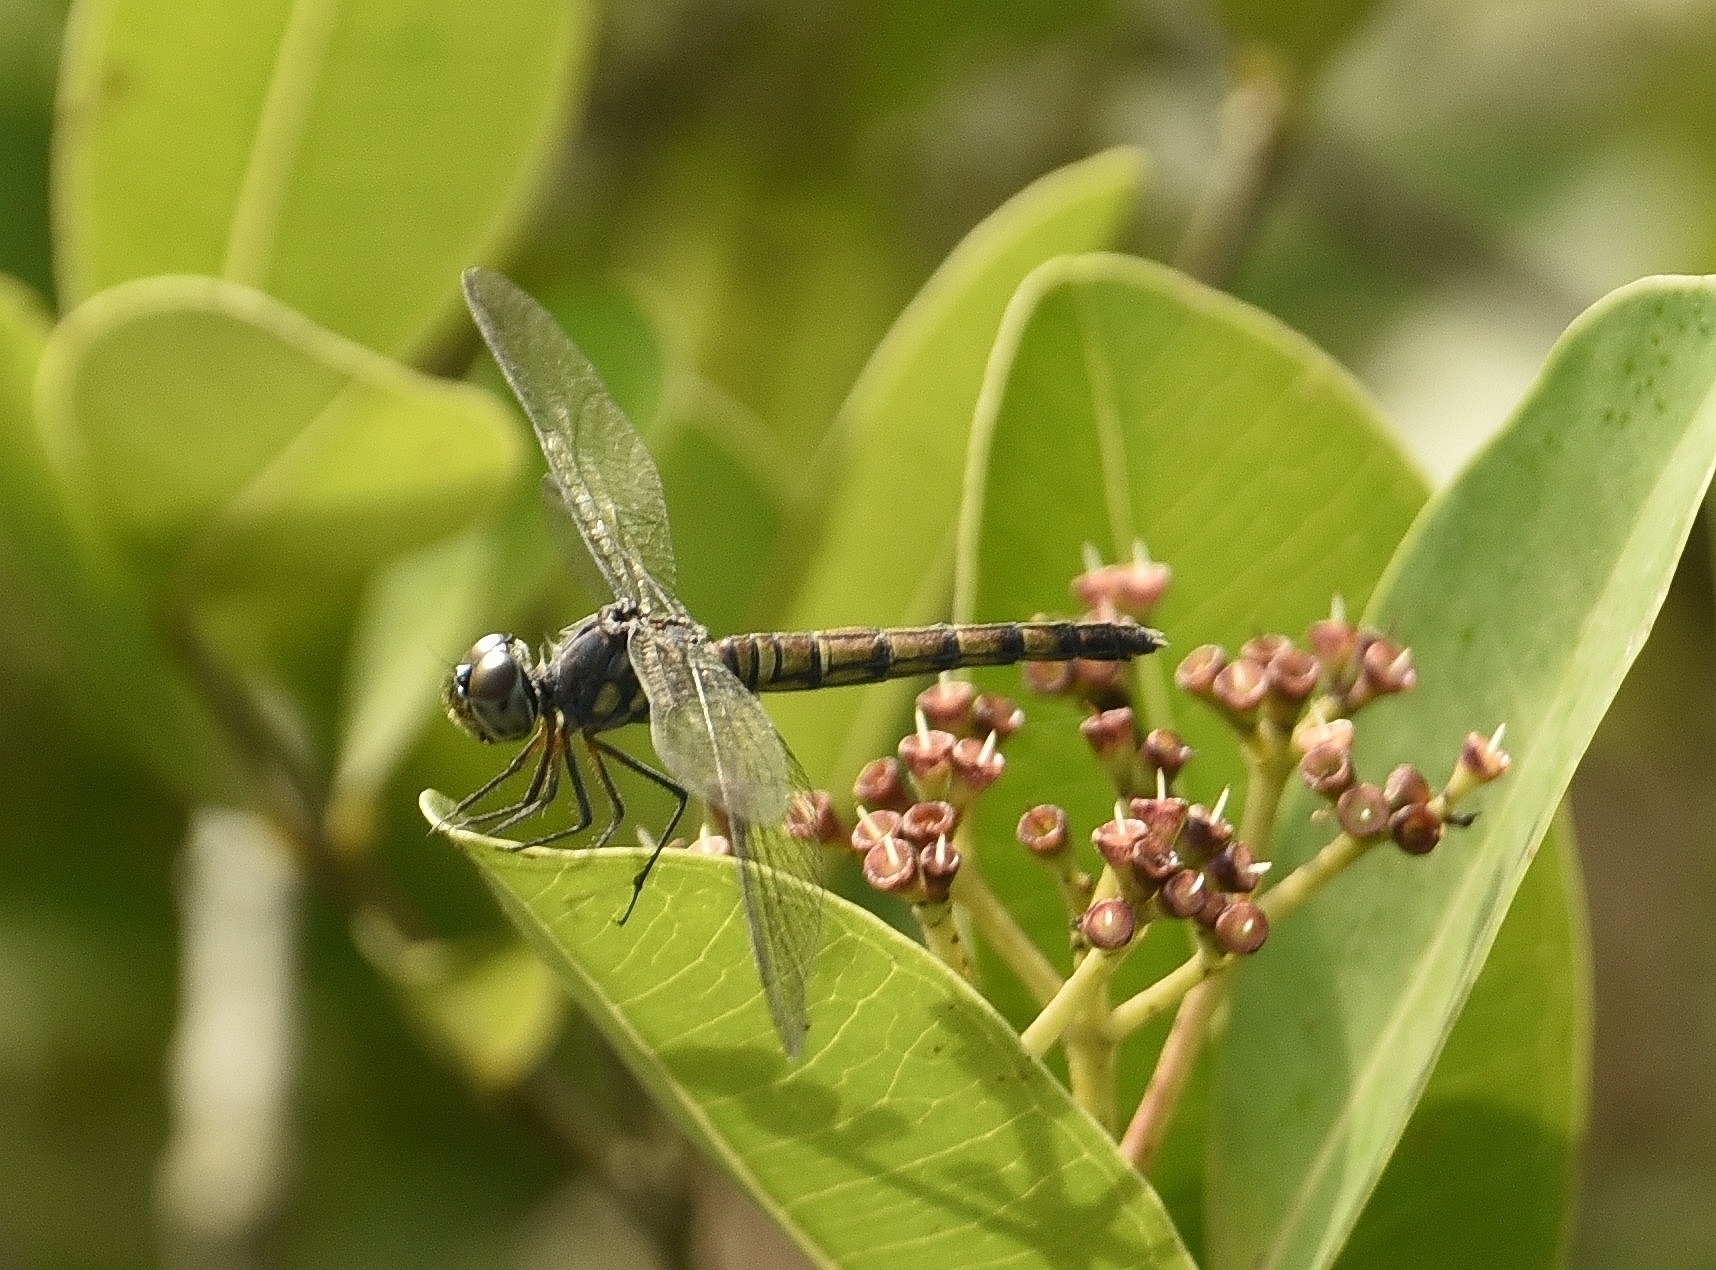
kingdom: Animalia
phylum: Arthropoda
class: Insecta
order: Odonata
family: Libellulidae
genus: Brachydiplax
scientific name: Brachydiplax chalybea
